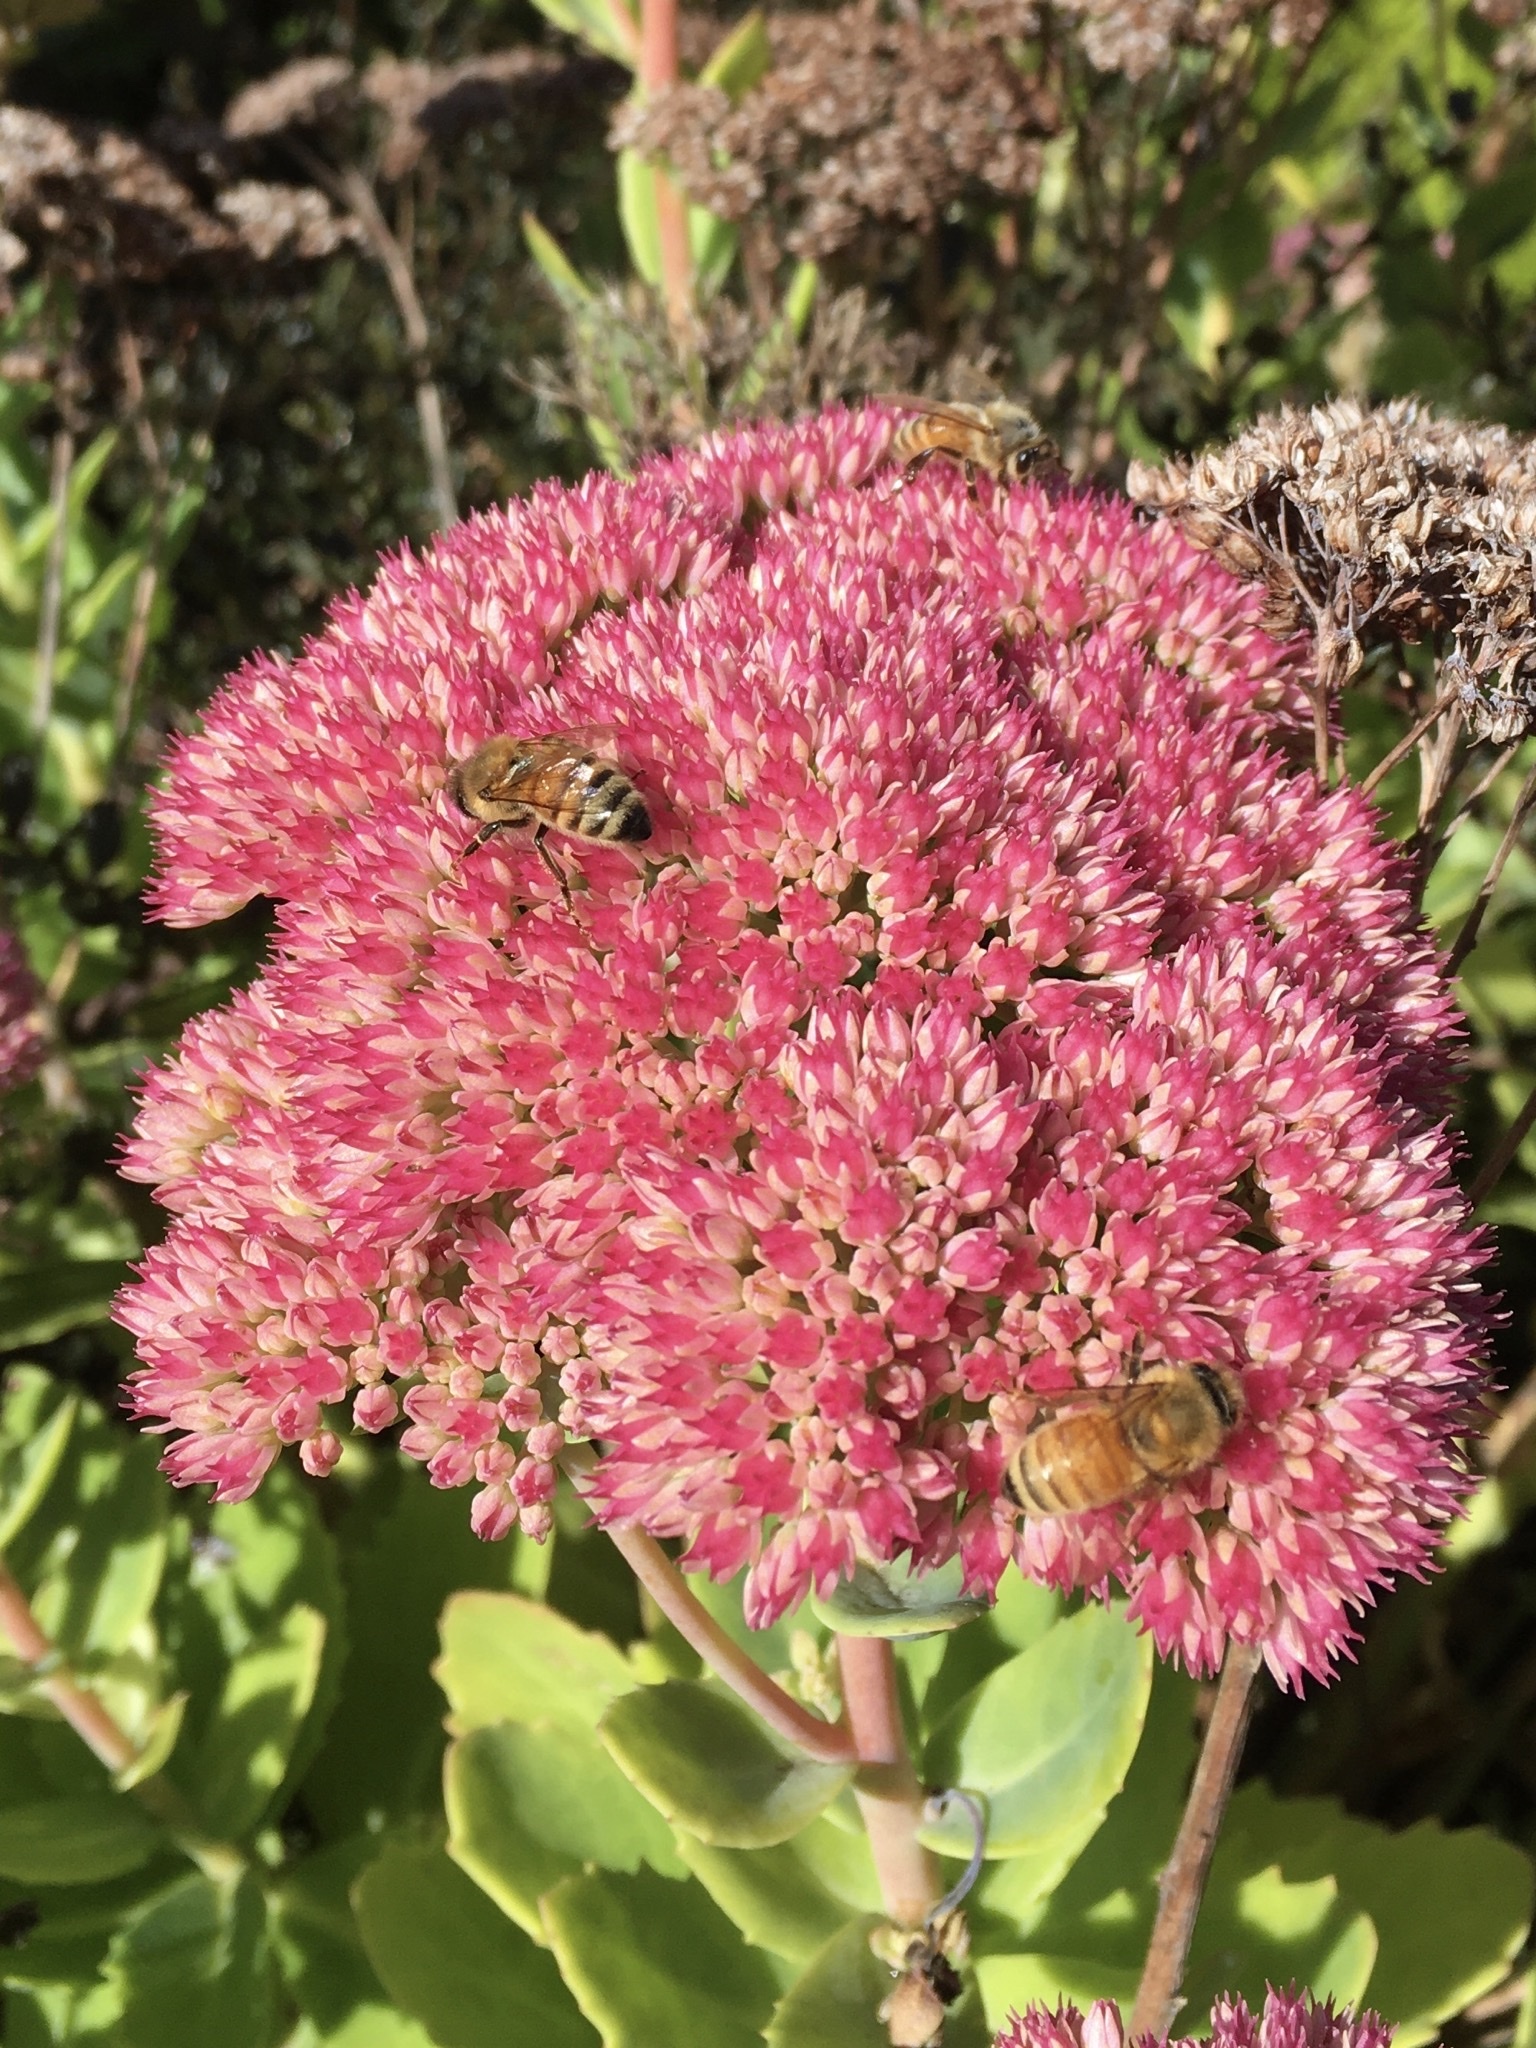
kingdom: Animalia
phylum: Arthropoda
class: Insecta
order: Hymenoptera
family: Apidae
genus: Apis
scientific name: Apis mellifera
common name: Honey bee
